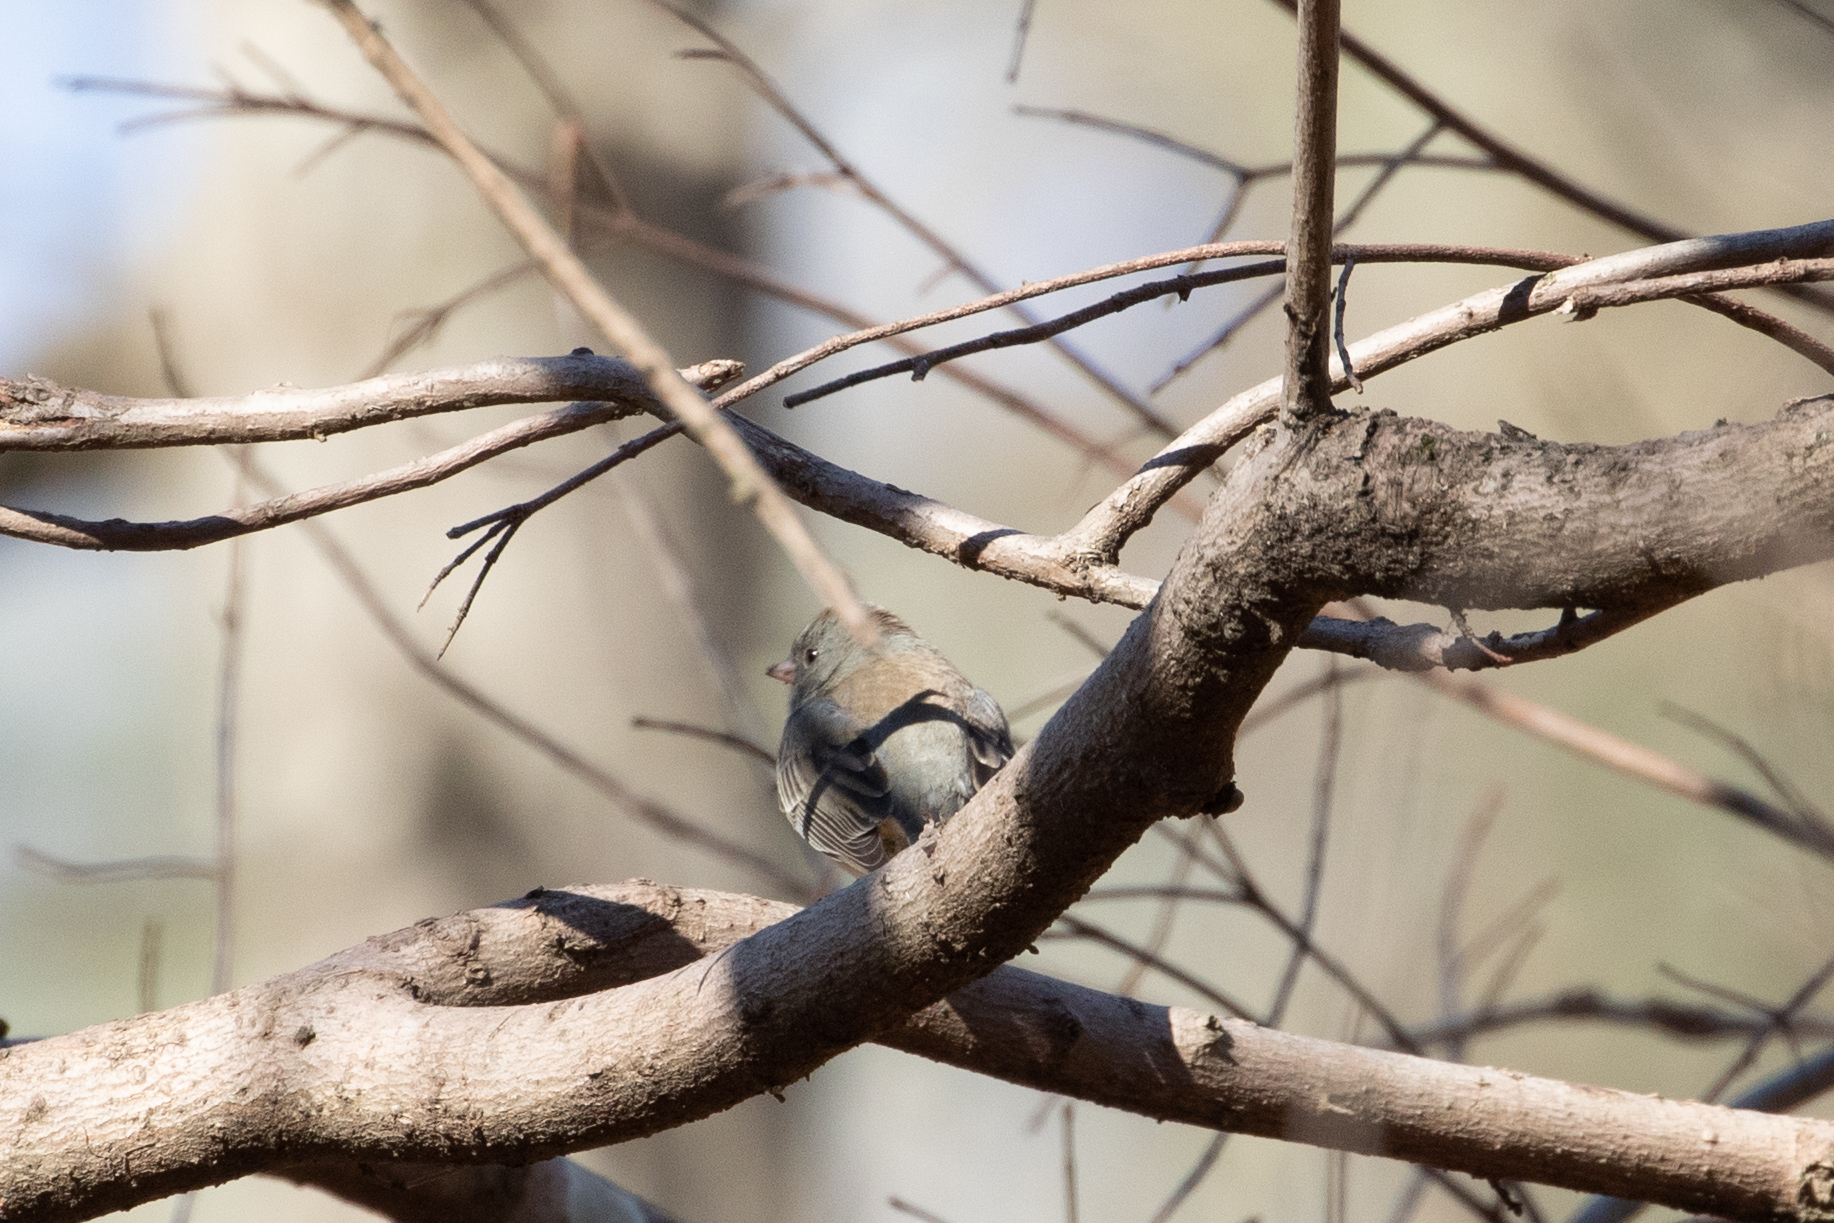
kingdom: Animalia
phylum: Chordata
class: Aves
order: Passeriformes
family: Passerellidae
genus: Junco
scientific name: Junco hyemalis
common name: Dark-eyed junco
